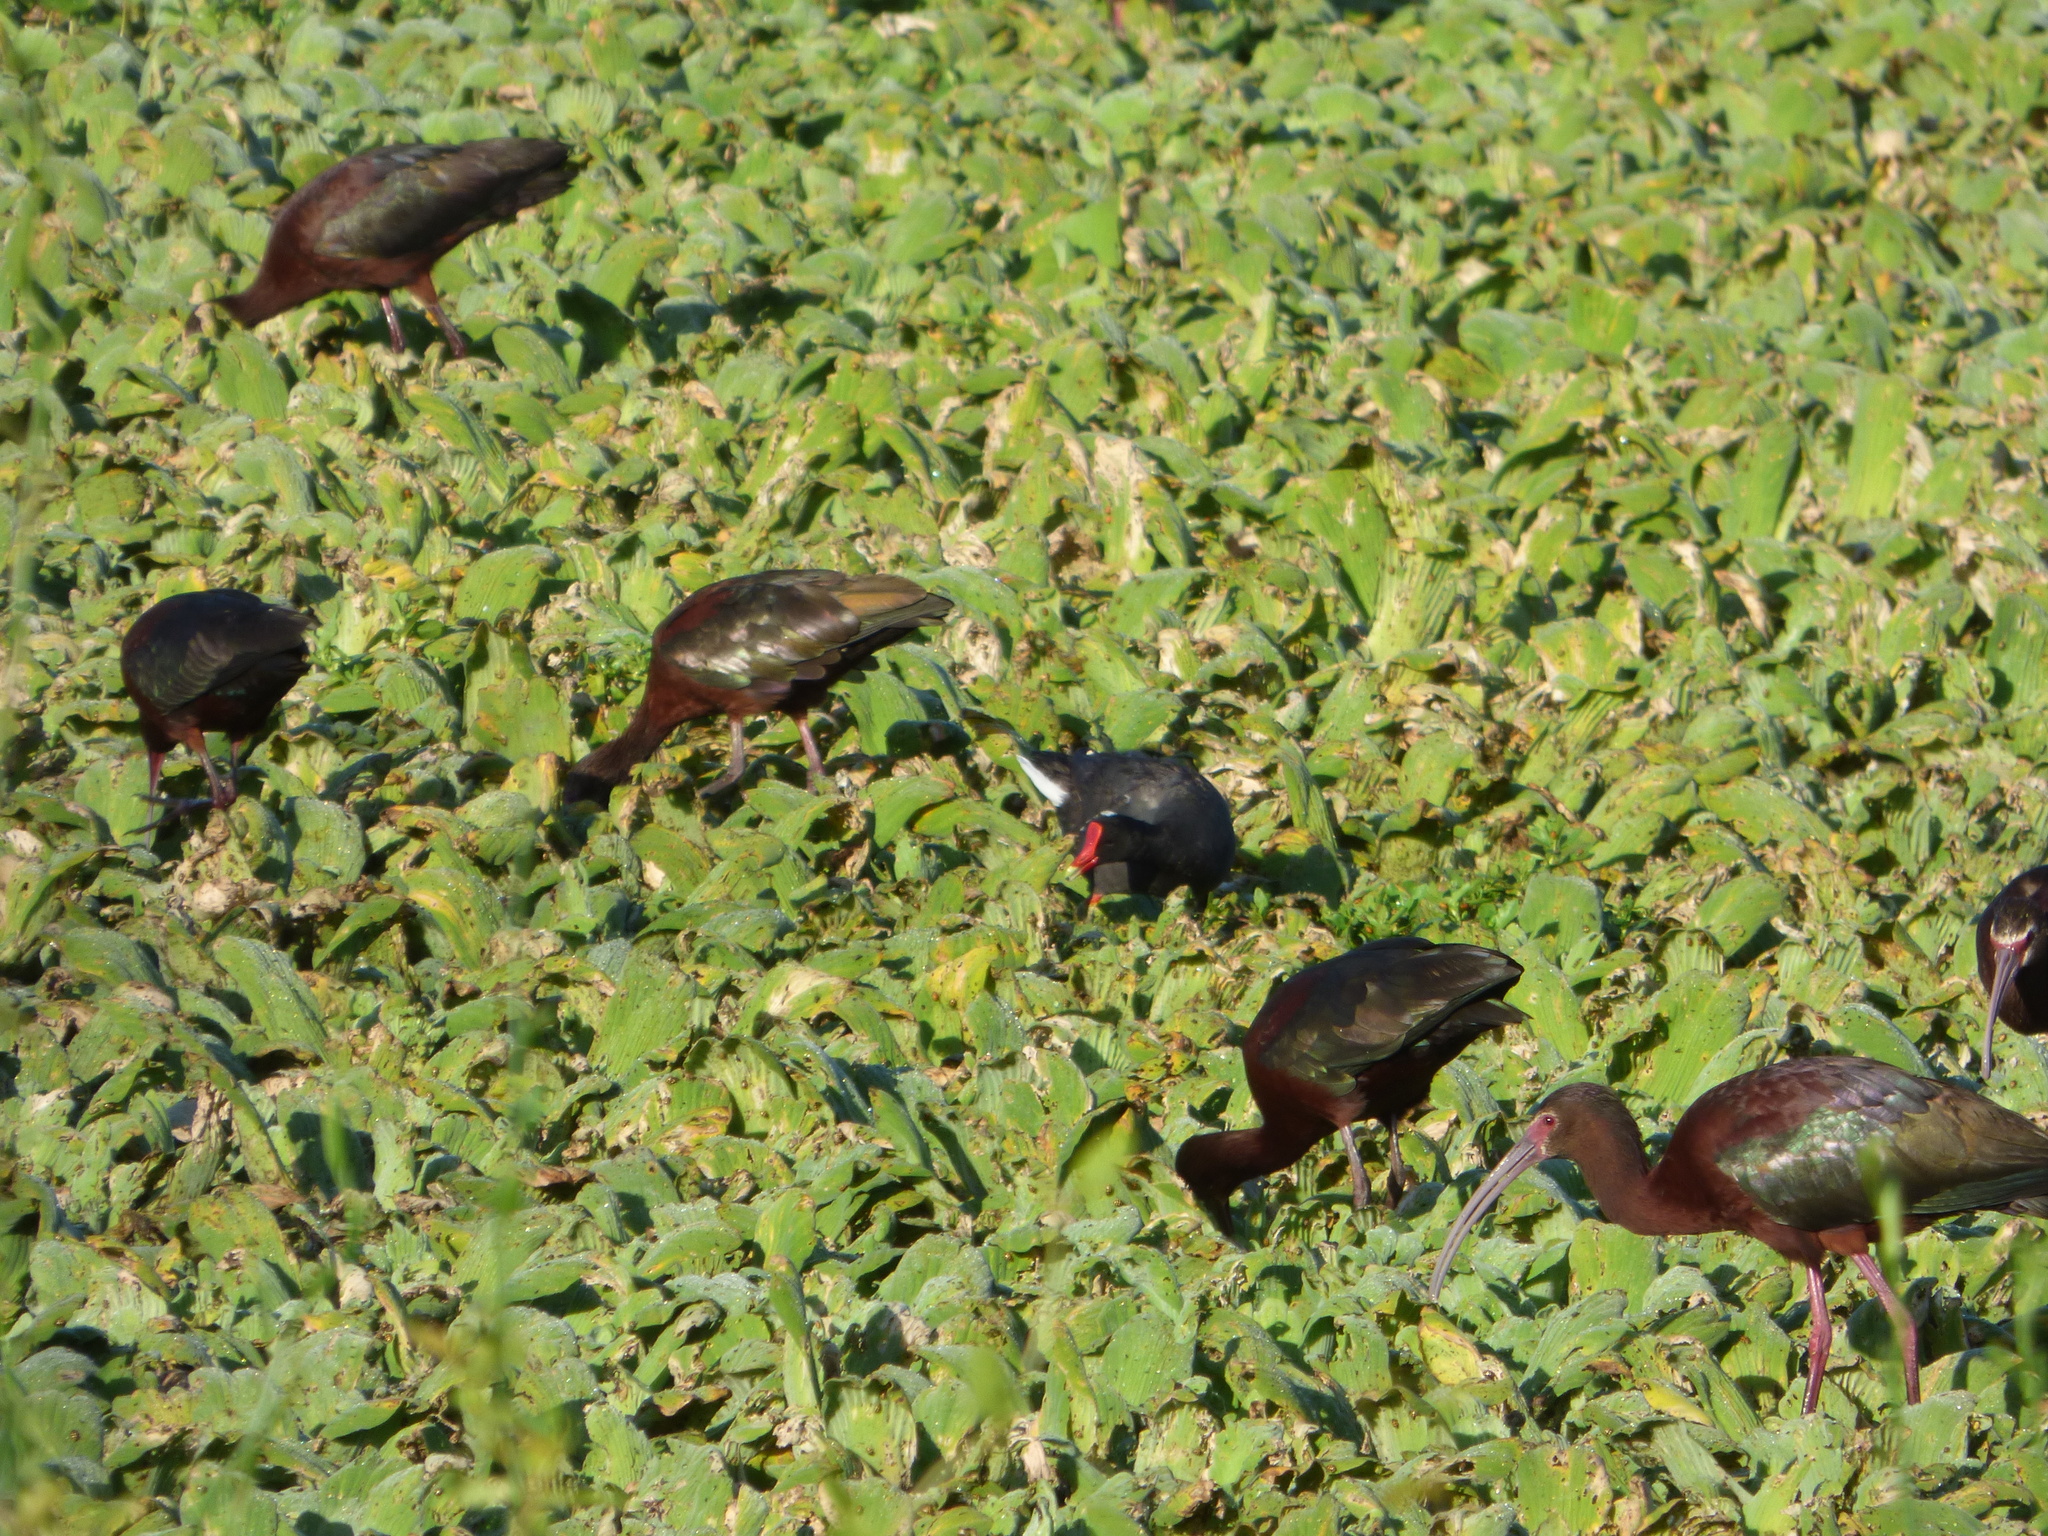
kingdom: Animalia
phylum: Chordata
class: Aves
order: Gruiformes
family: Rallidae
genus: Gallinula
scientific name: Gallinula chloropus
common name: Common moorhen
